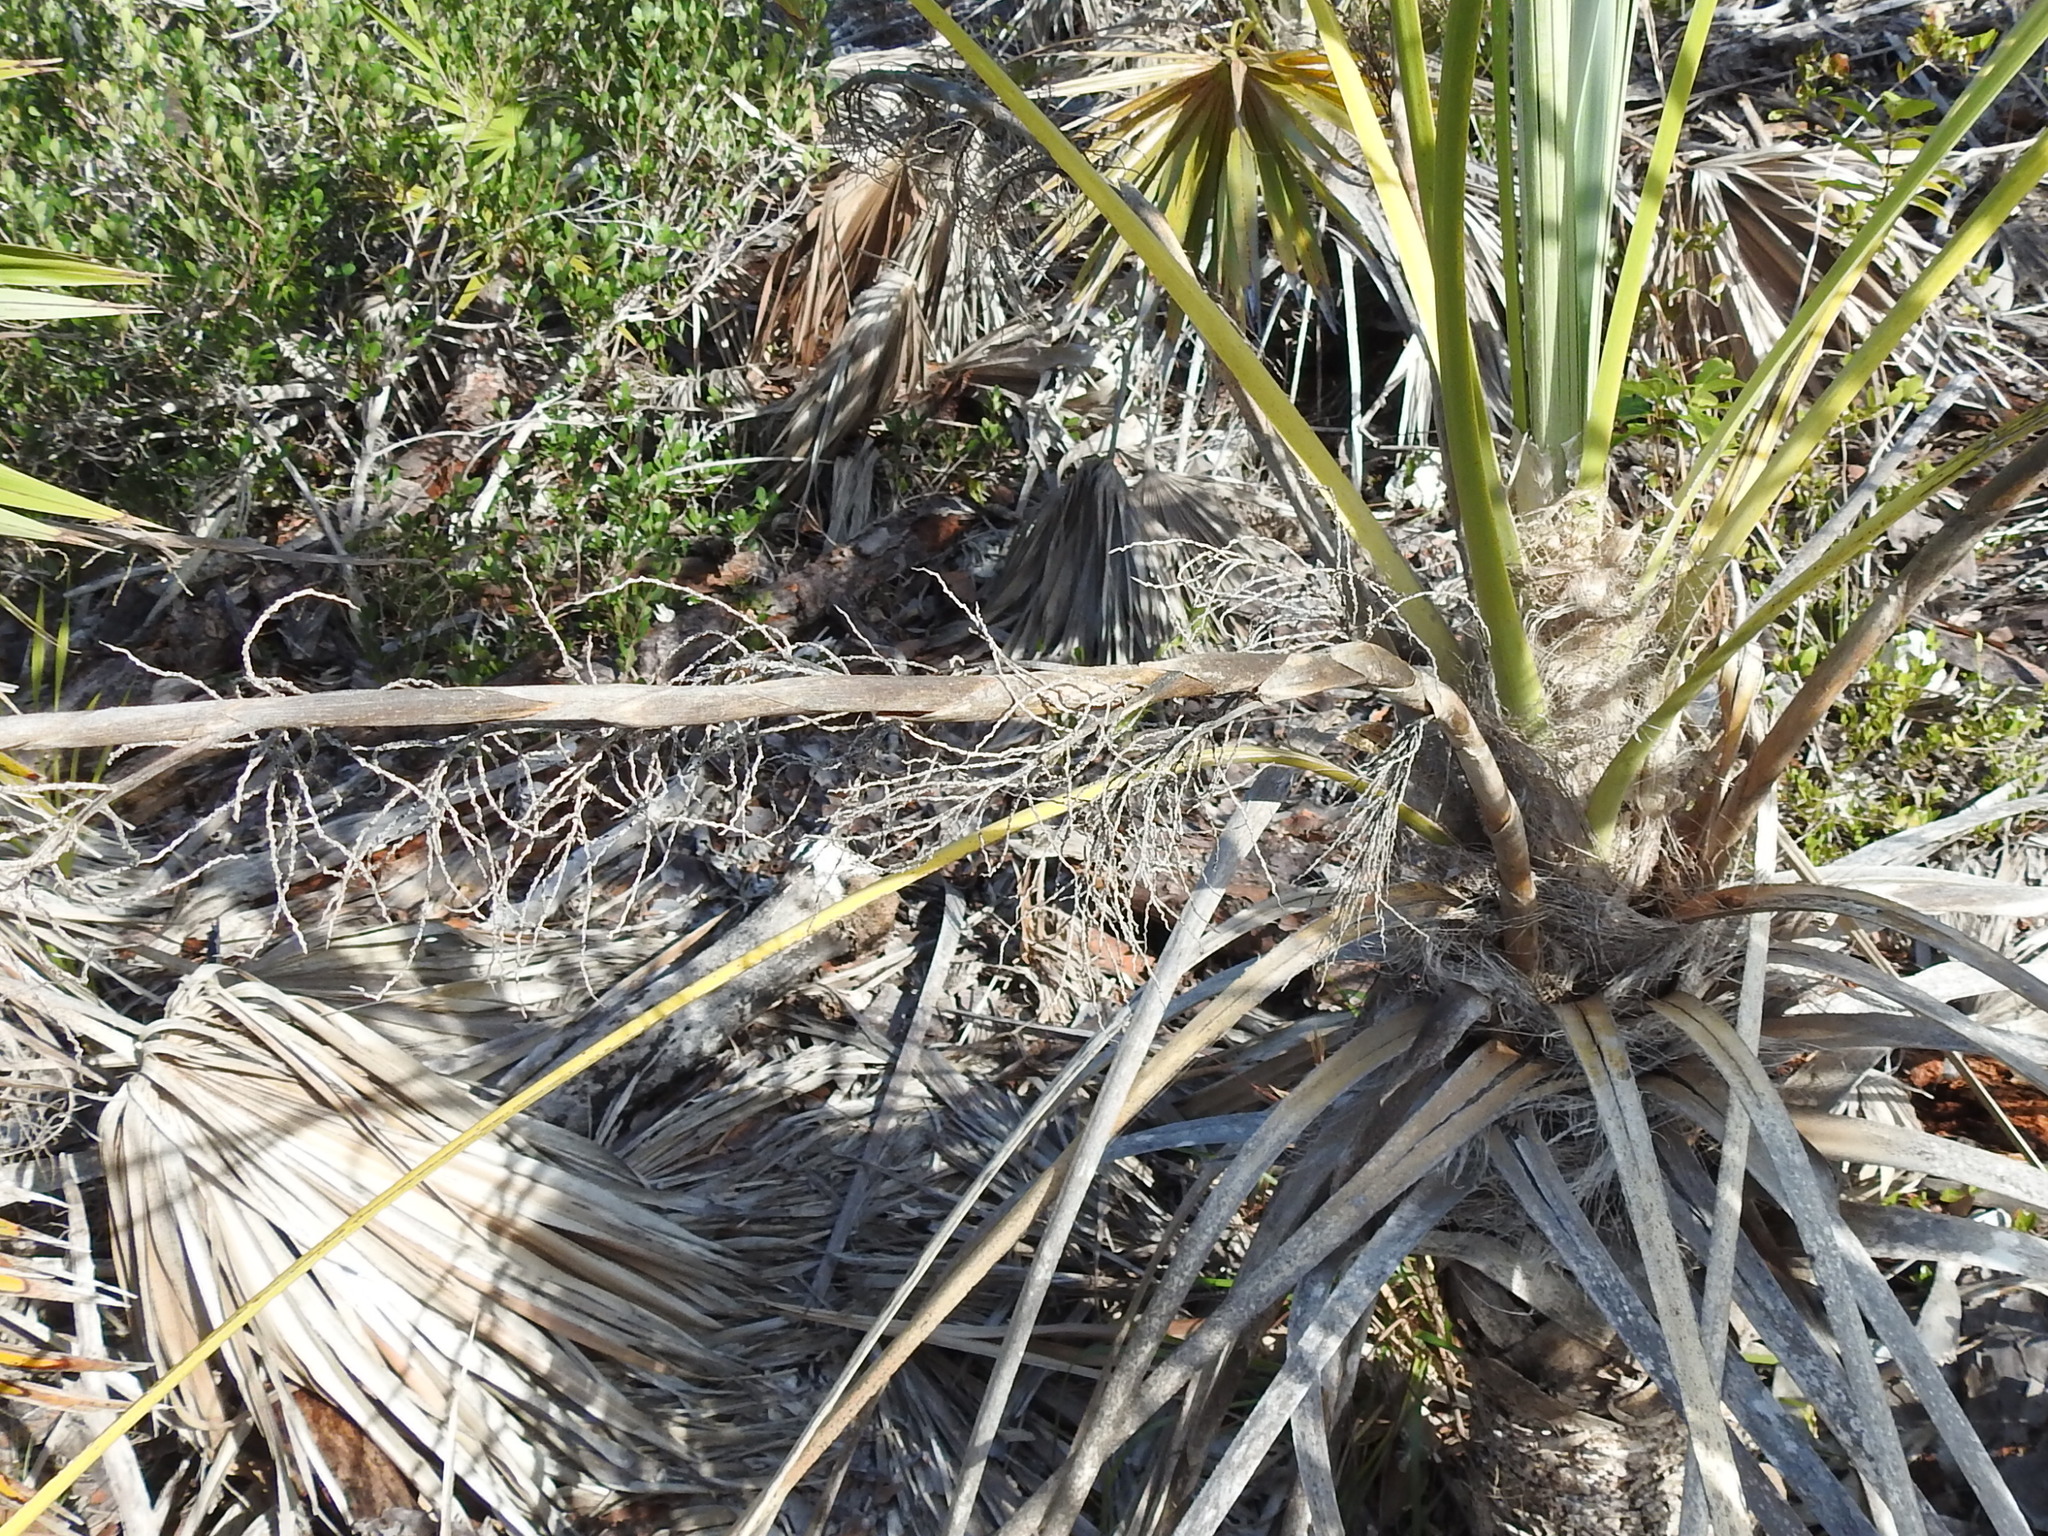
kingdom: Plantae
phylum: Tracheophyta
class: Liliopsida
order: Arecales
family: Arecaceae
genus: Leucothrinax
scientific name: Leucothrinax morrisii
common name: Key palm
